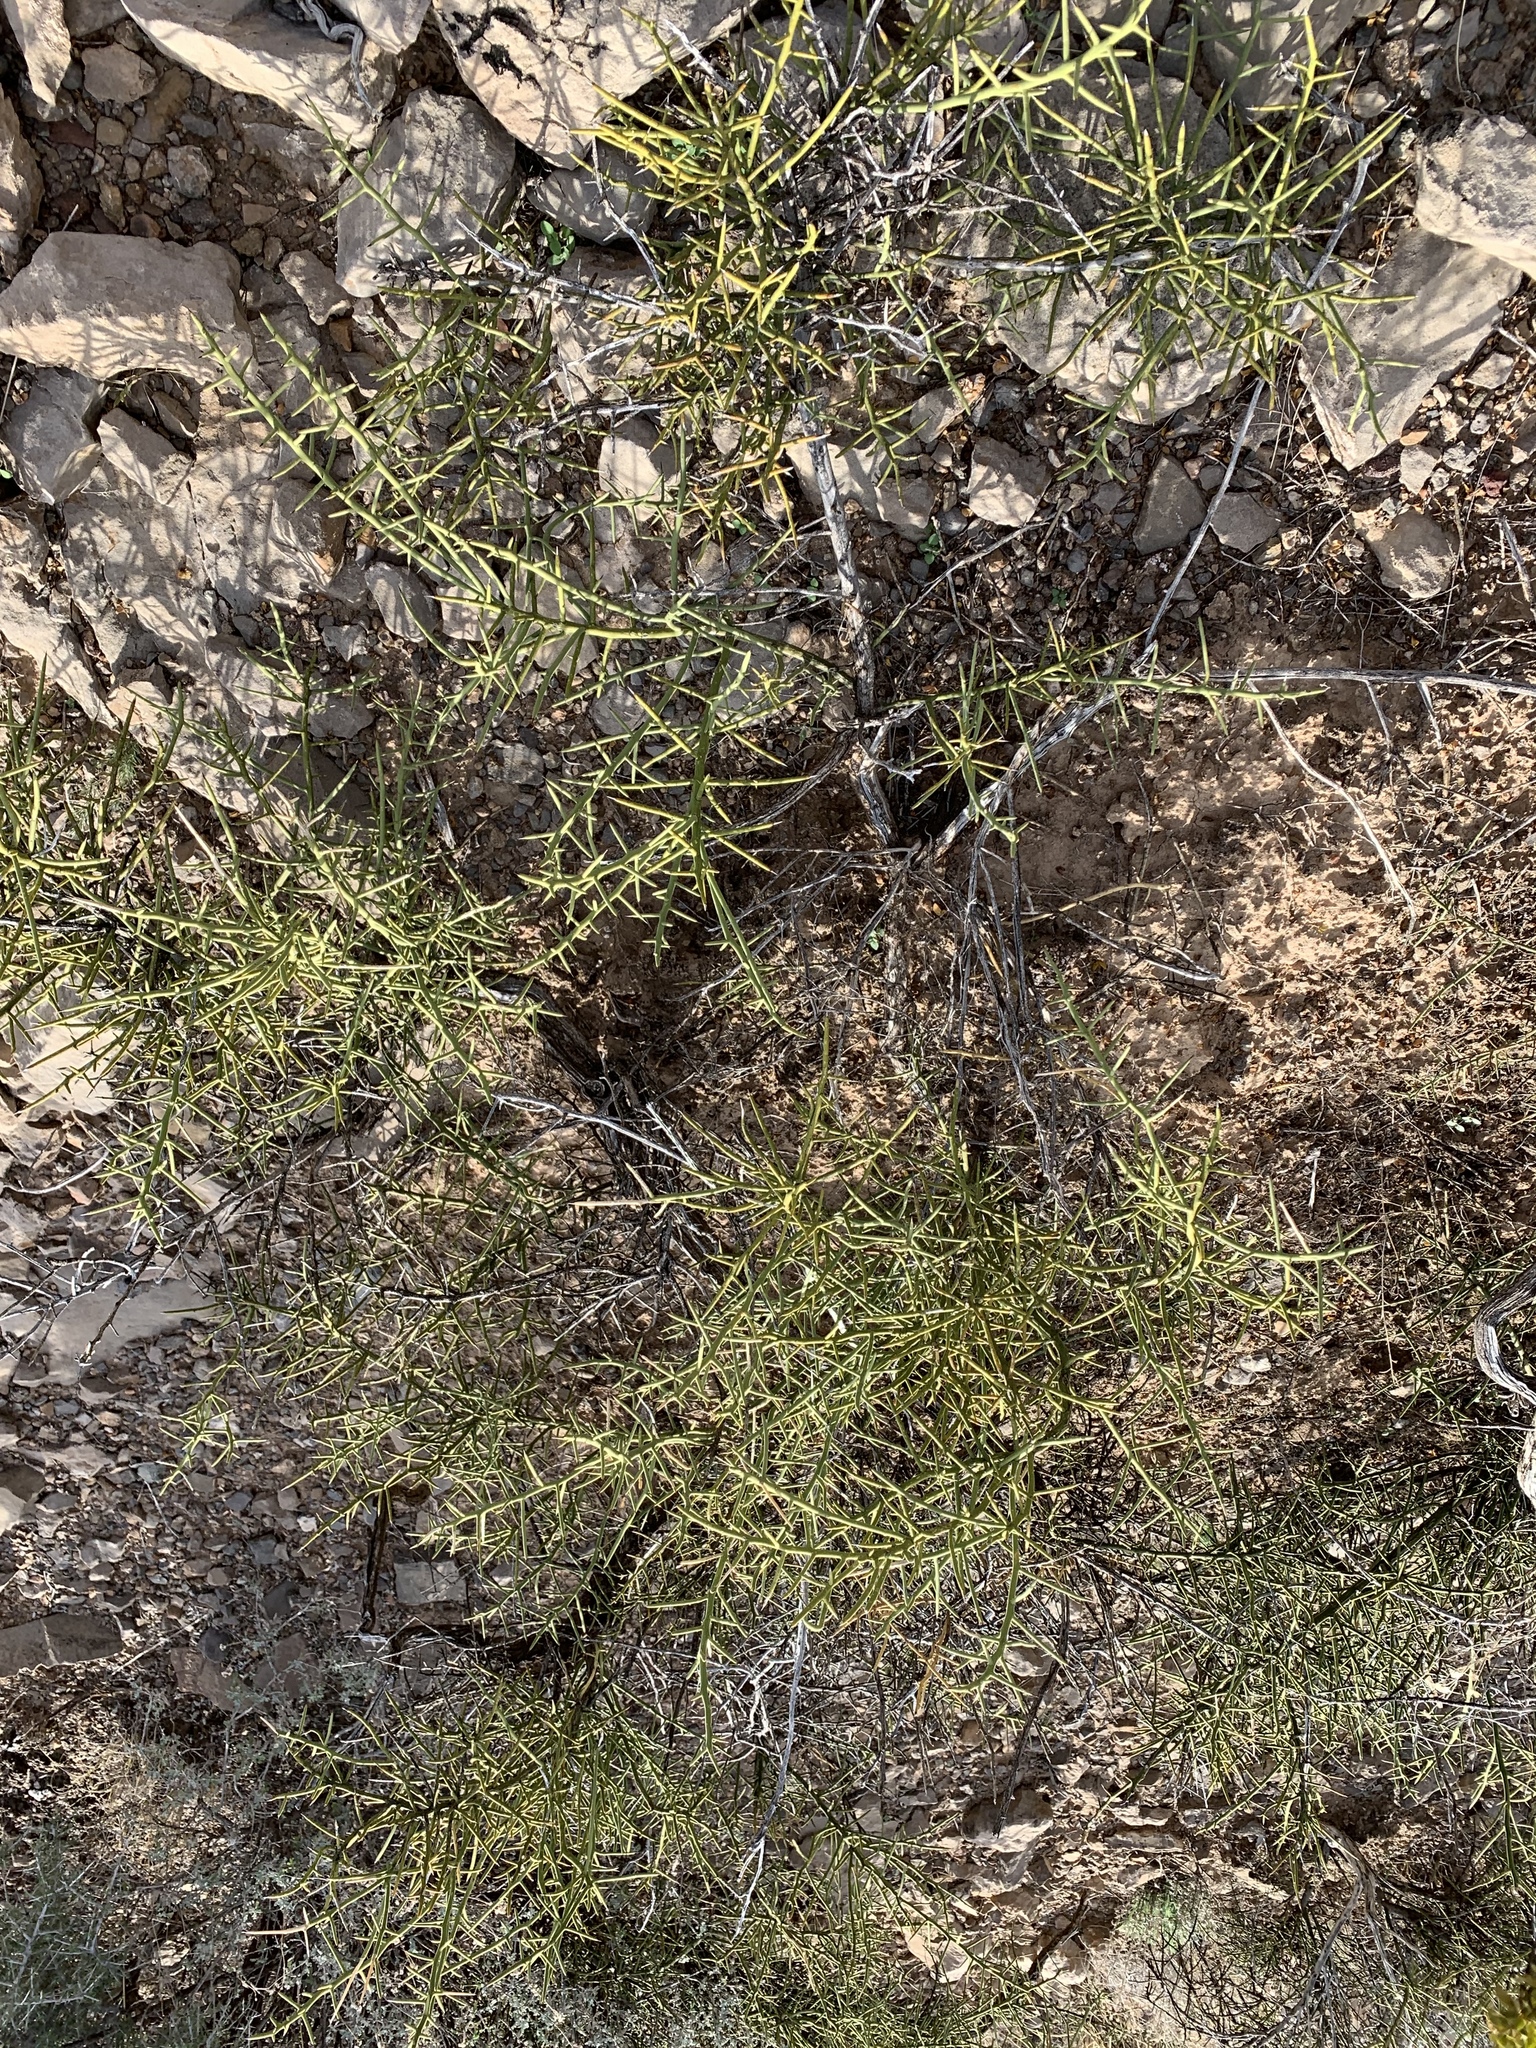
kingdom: Plantae
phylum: Tracheophyta
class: Magnoliopsida
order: Brassicales
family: Koeberliniaceae
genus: Koeberlinia
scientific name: Koeberlinia spinosa
